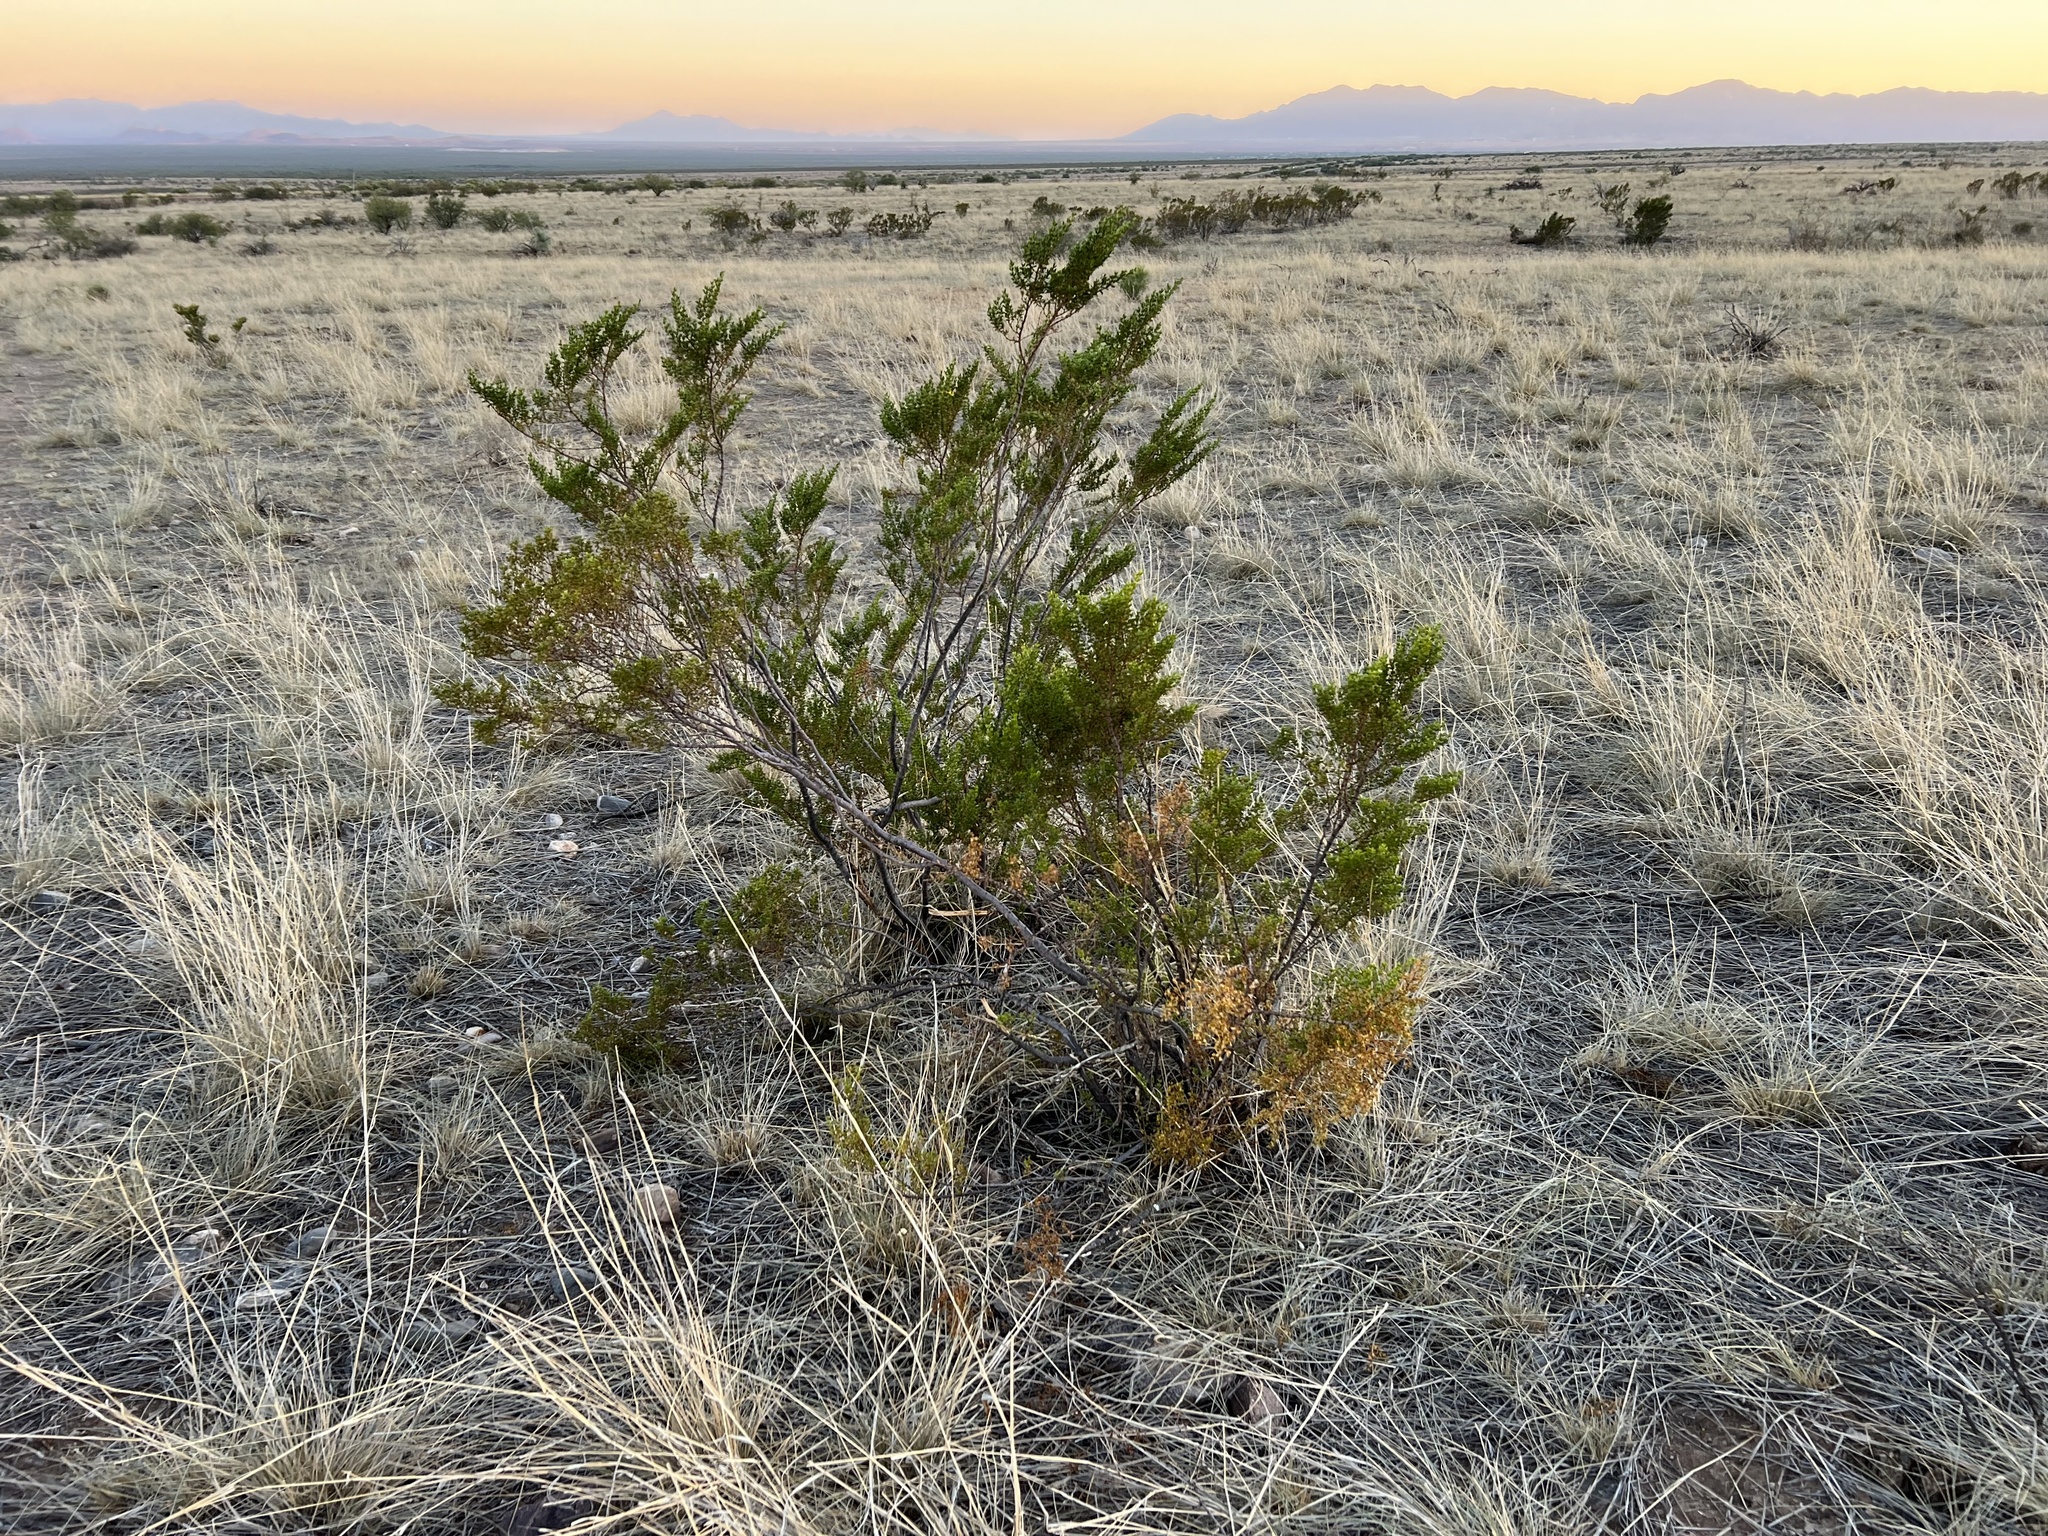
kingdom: Plantae
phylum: Tracheophyta
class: Magnoliopsida
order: Zygophyllales
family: Zygophyllaceae
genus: Larrea
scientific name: Larrea tridentata
